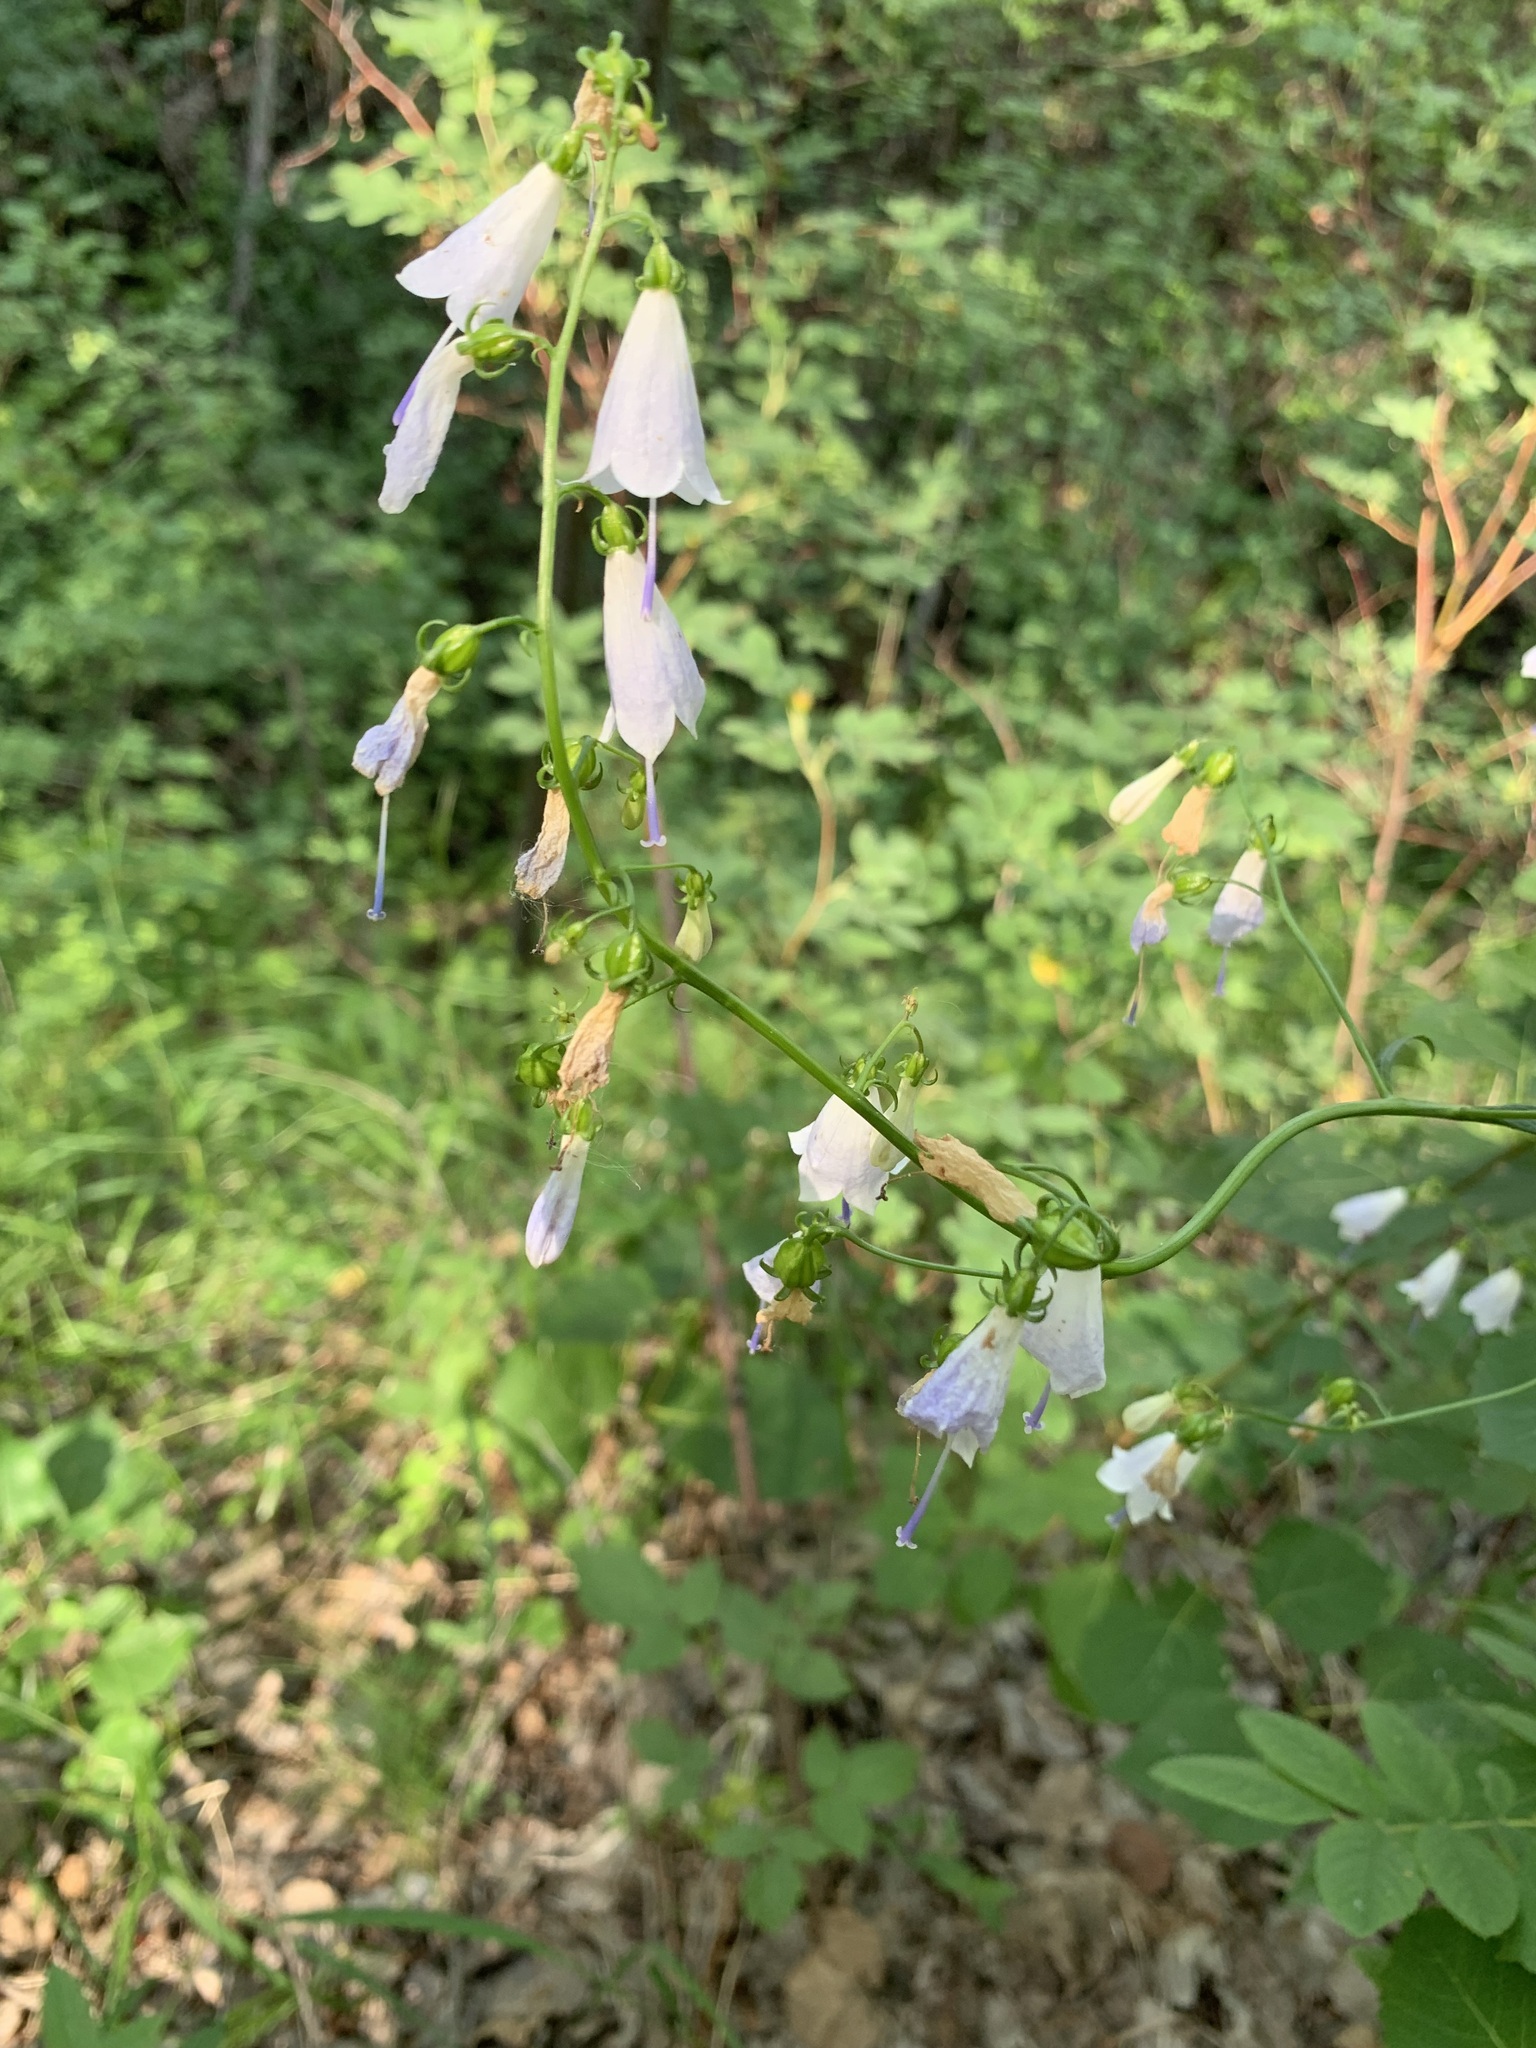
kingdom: Plantae
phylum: Tracheophyta
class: Magnoliopsida
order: Asterales
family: Campanulaceae
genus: Adenophora
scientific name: Adenophora liliifolia
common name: Lilyleaf ladybells
